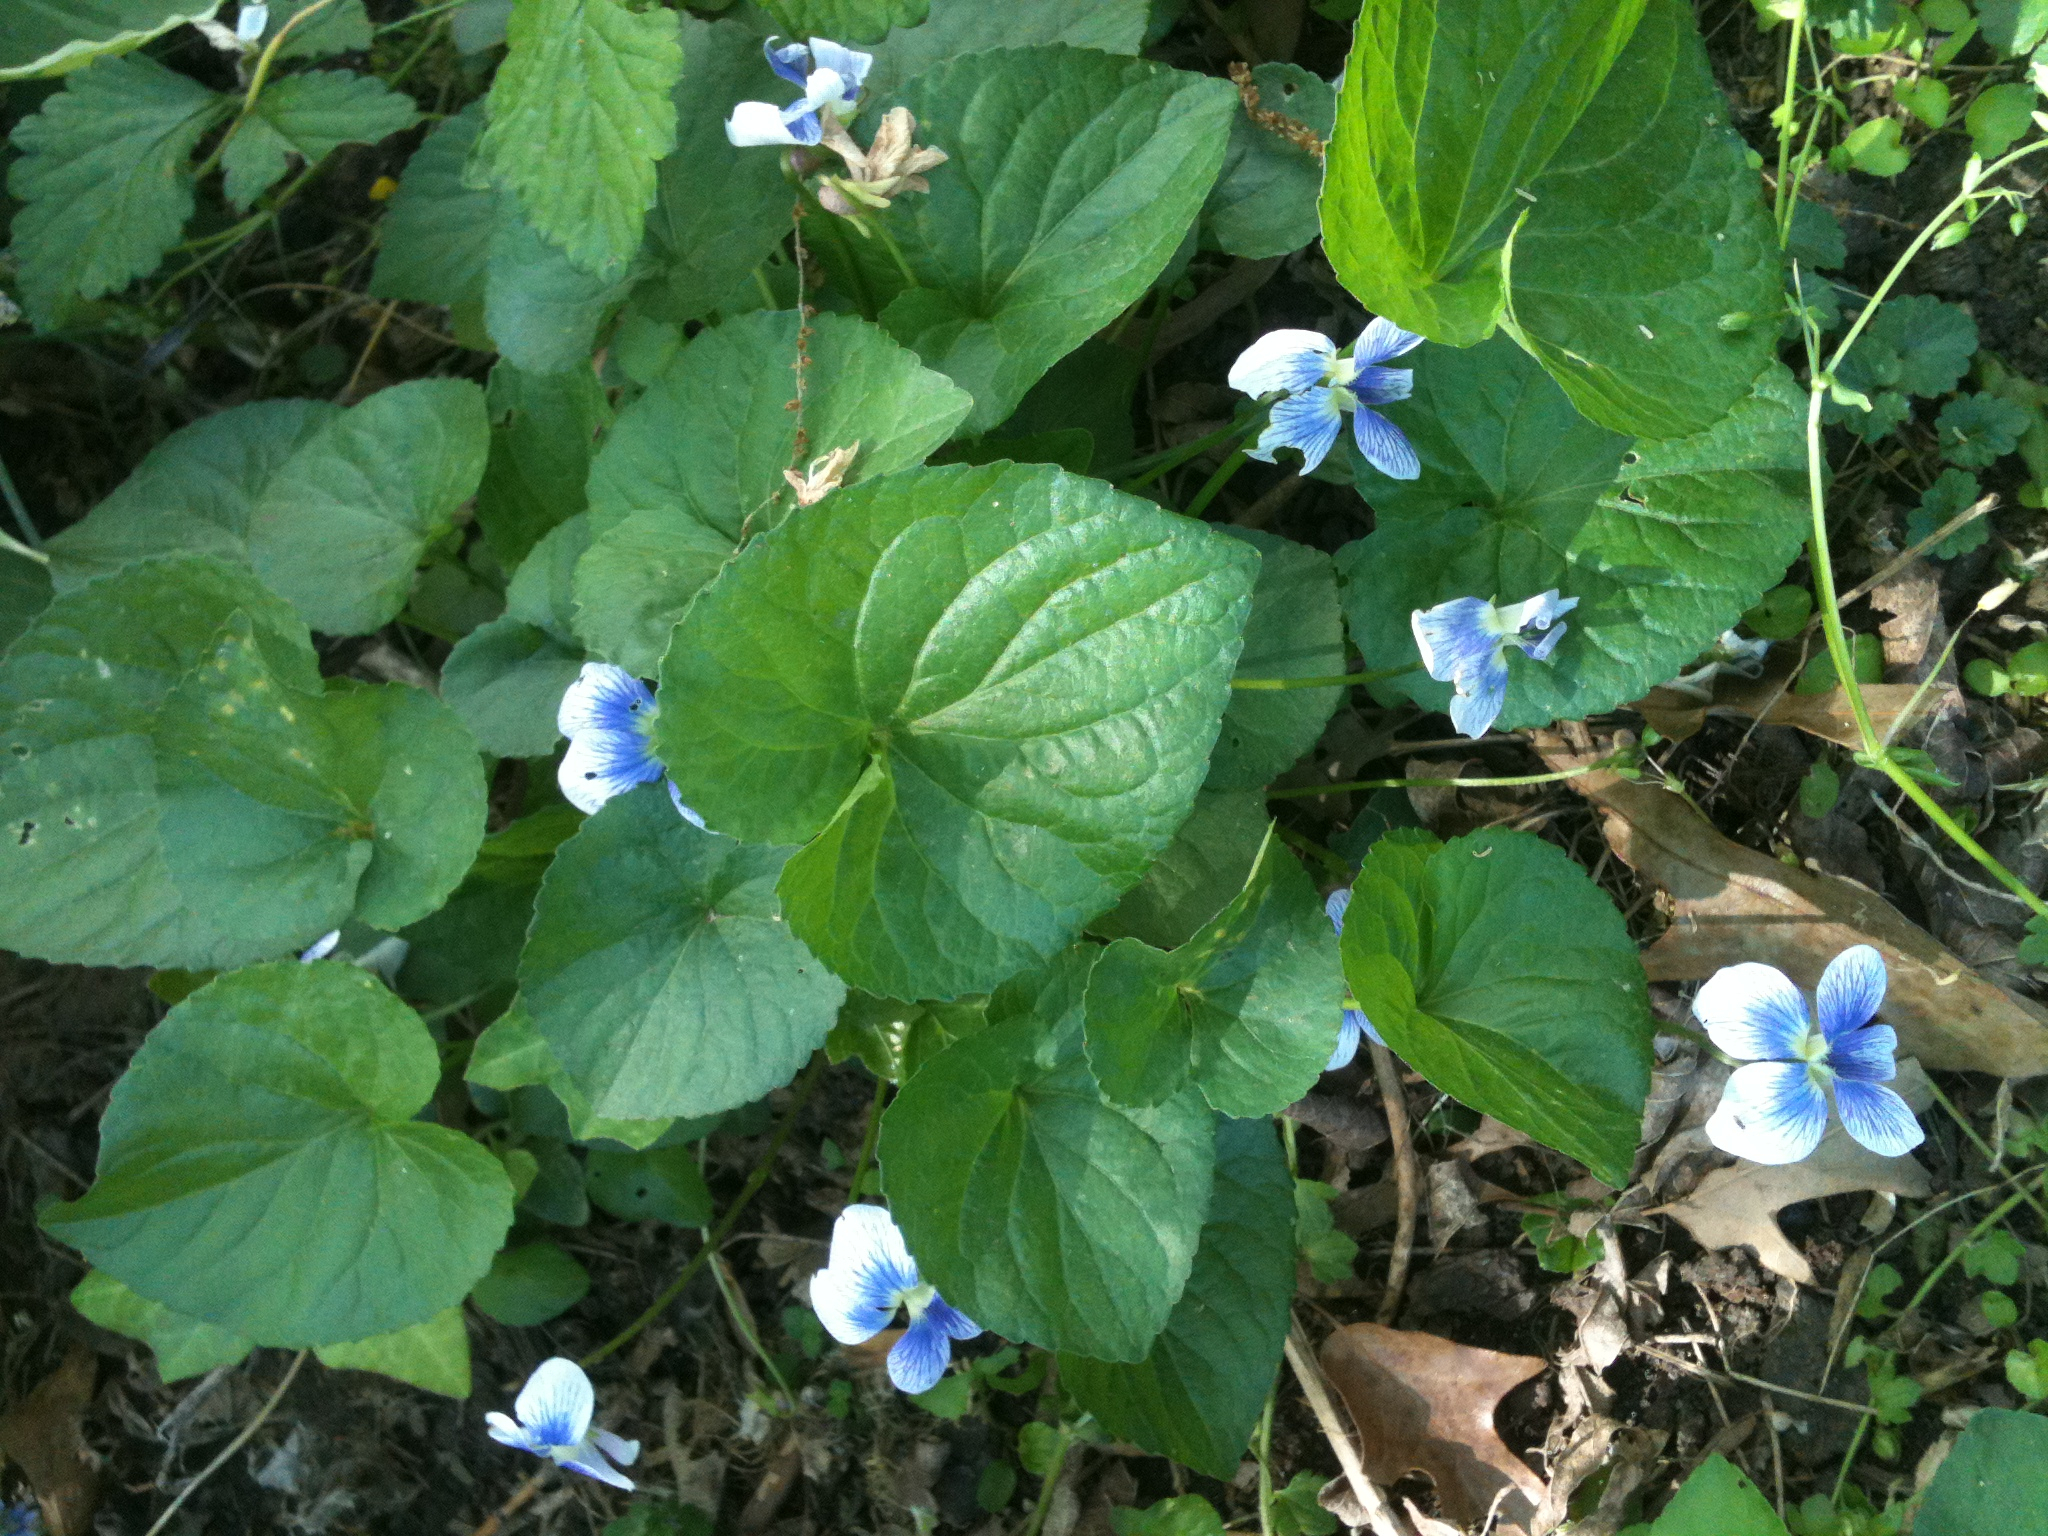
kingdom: Plantae
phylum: Tracheophyta
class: Magnoliopsida
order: Malpighiales
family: Violaceae
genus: Viola
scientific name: Viola sororia
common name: Dooryard violet
